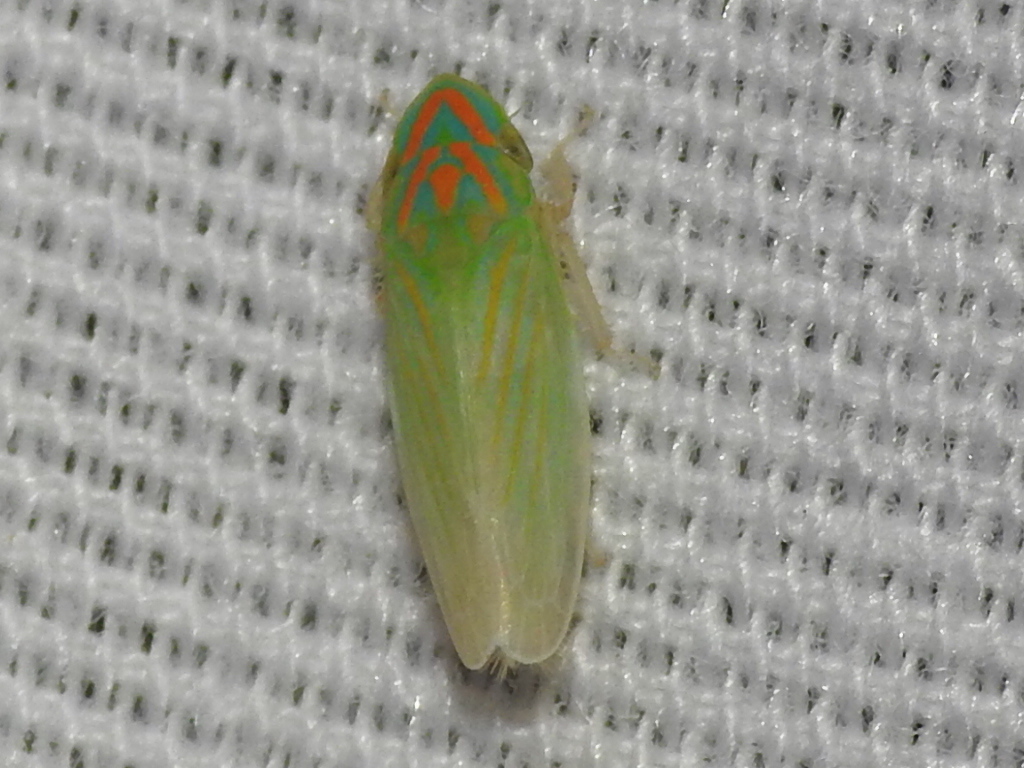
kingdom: Animalia
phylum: Arthropoda
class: Insecta
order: Hemiptera
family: Cicadellidae
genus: Spangbergiella
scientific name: Spangbergiella vulnerata
